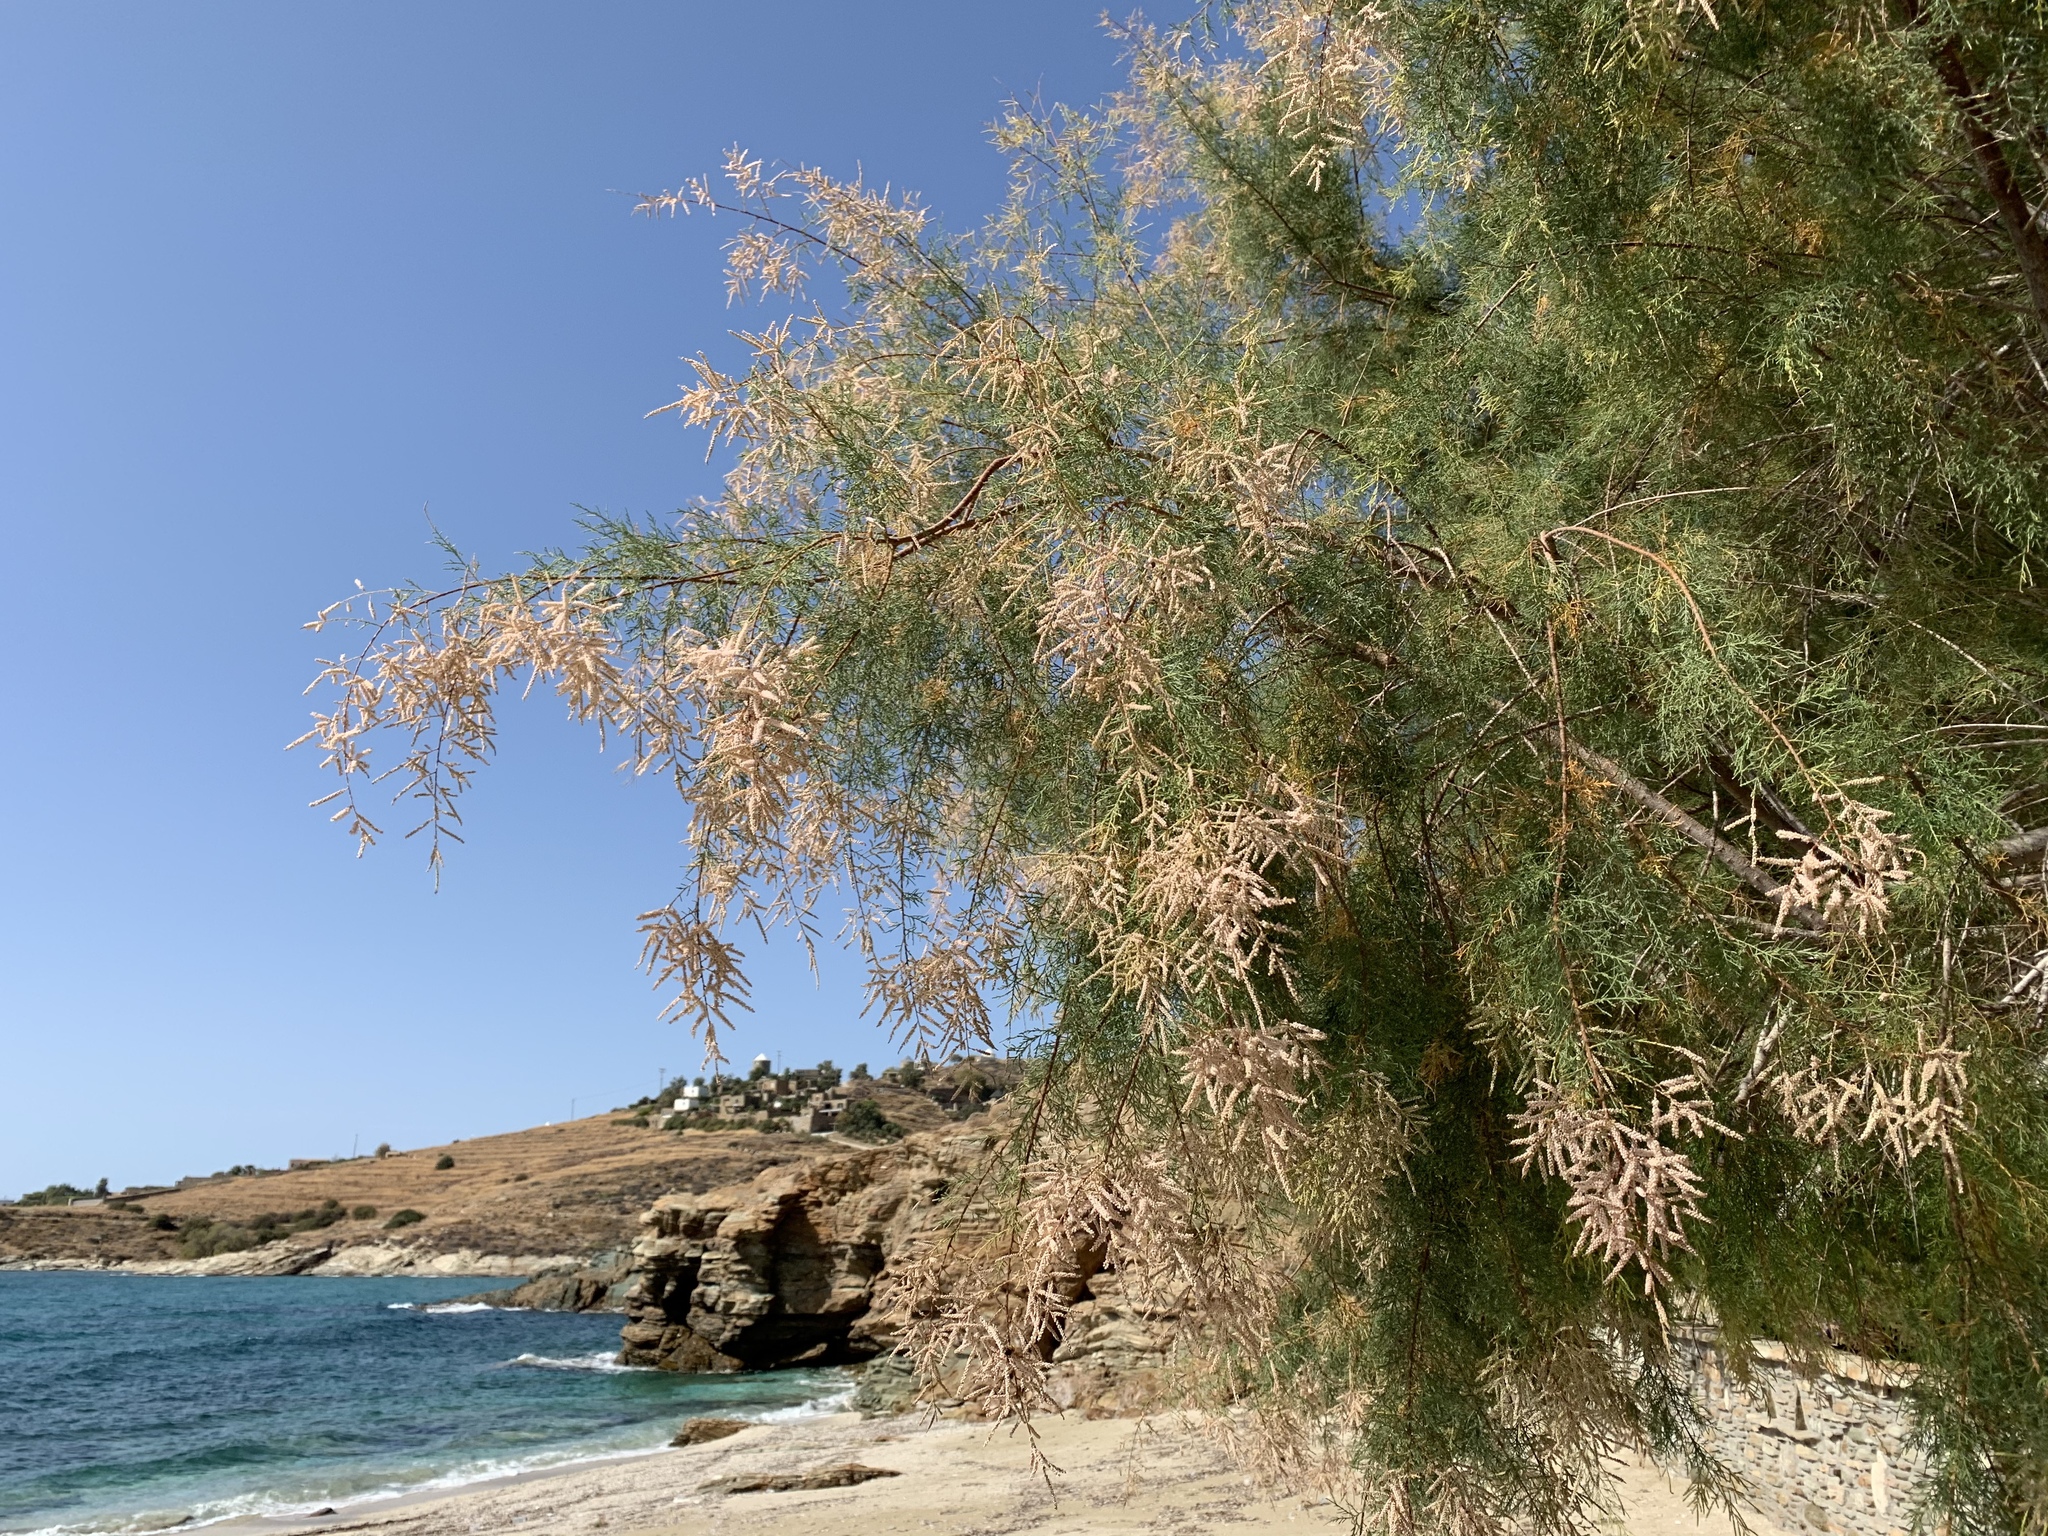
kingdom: Plantae
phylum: Tracheophyta
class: Magnoliopsida
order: Caryophyllales
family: Tamaricaceae
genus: Tamarix
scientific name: Tamarix ramosissima
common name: Pink tamarisk
